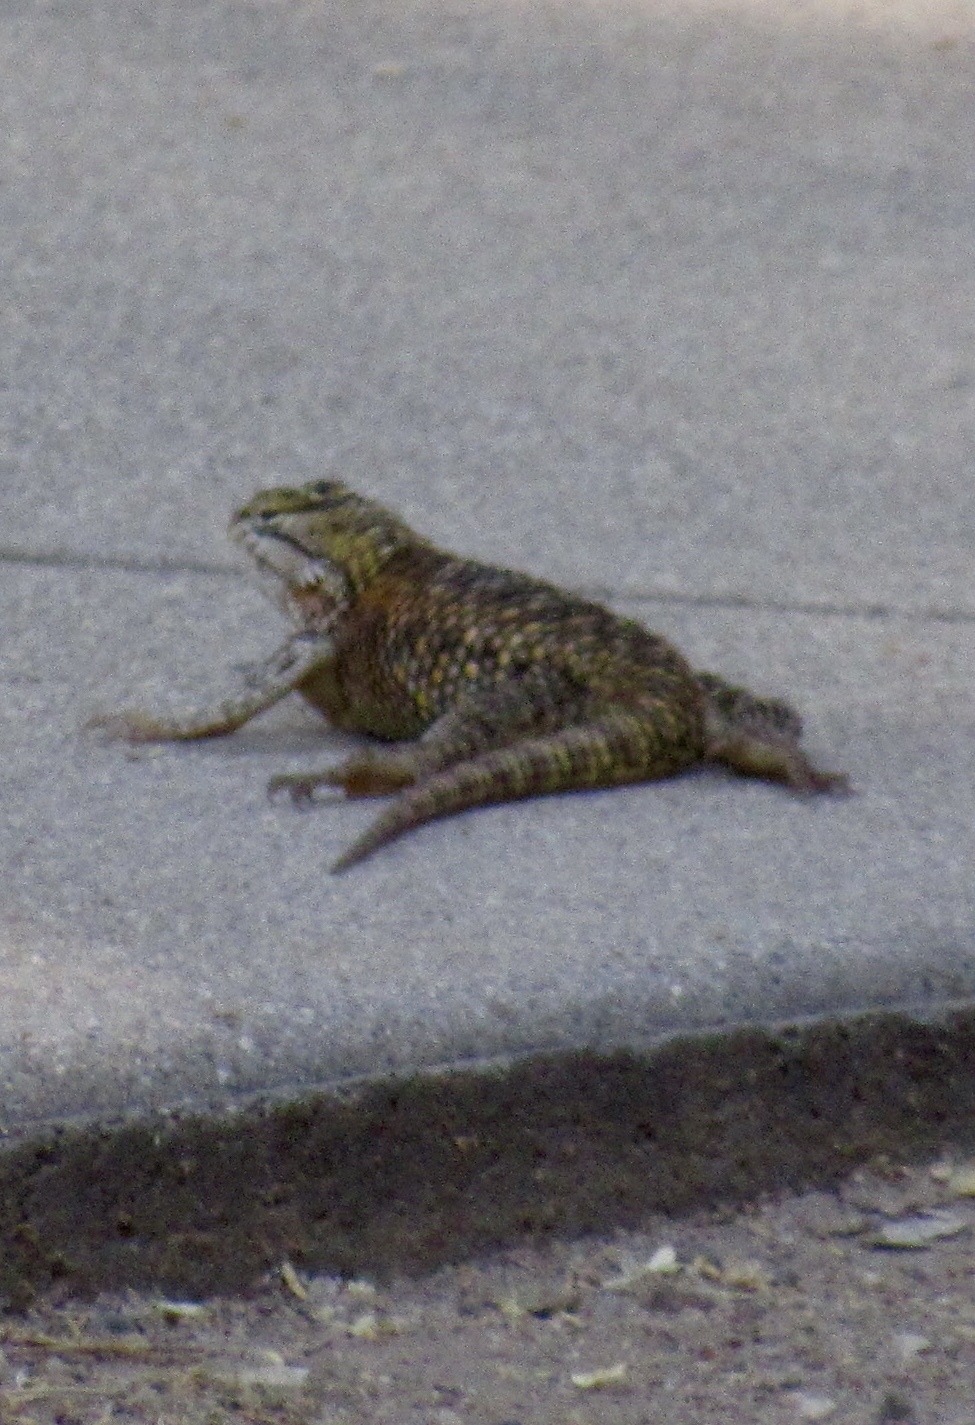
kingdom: Animalia
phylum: Chordata
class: Squamata
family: Phrynosomatidae
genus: Sceloporus
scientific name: Sceloporus magister
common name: Desert spiny lizard
